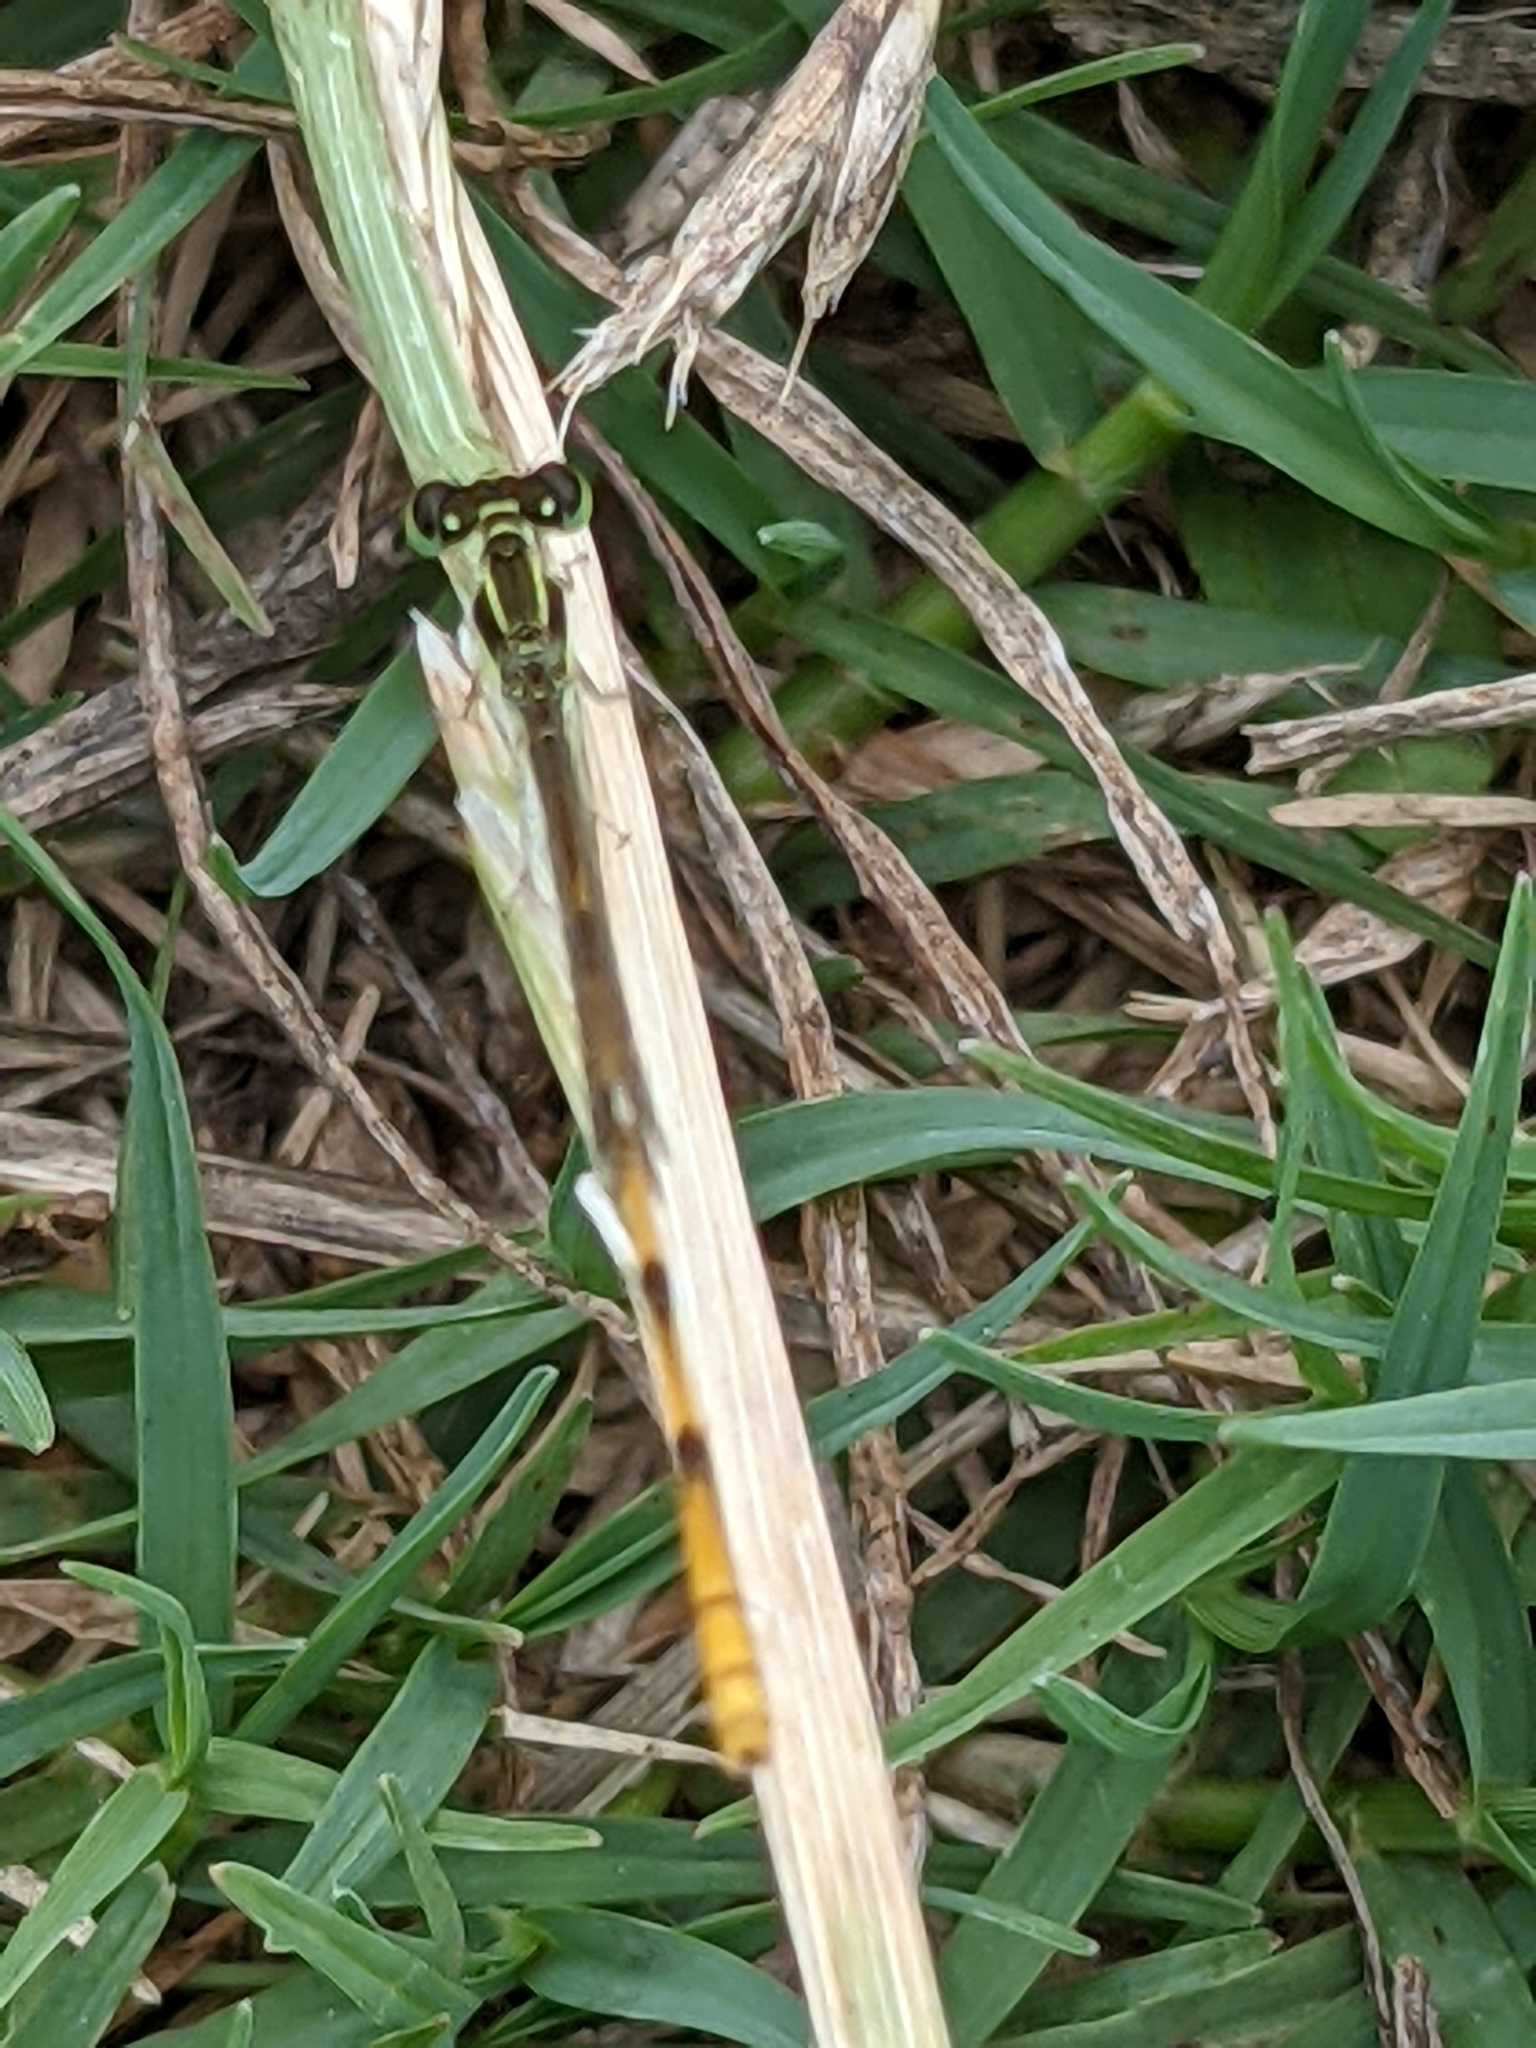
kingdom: Animalia
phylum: Arthropoda
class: Insecta
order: Odonata
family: Coenagrionidae
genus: Ischnura
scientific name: Ischnura hastata
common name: Citrine forktail
